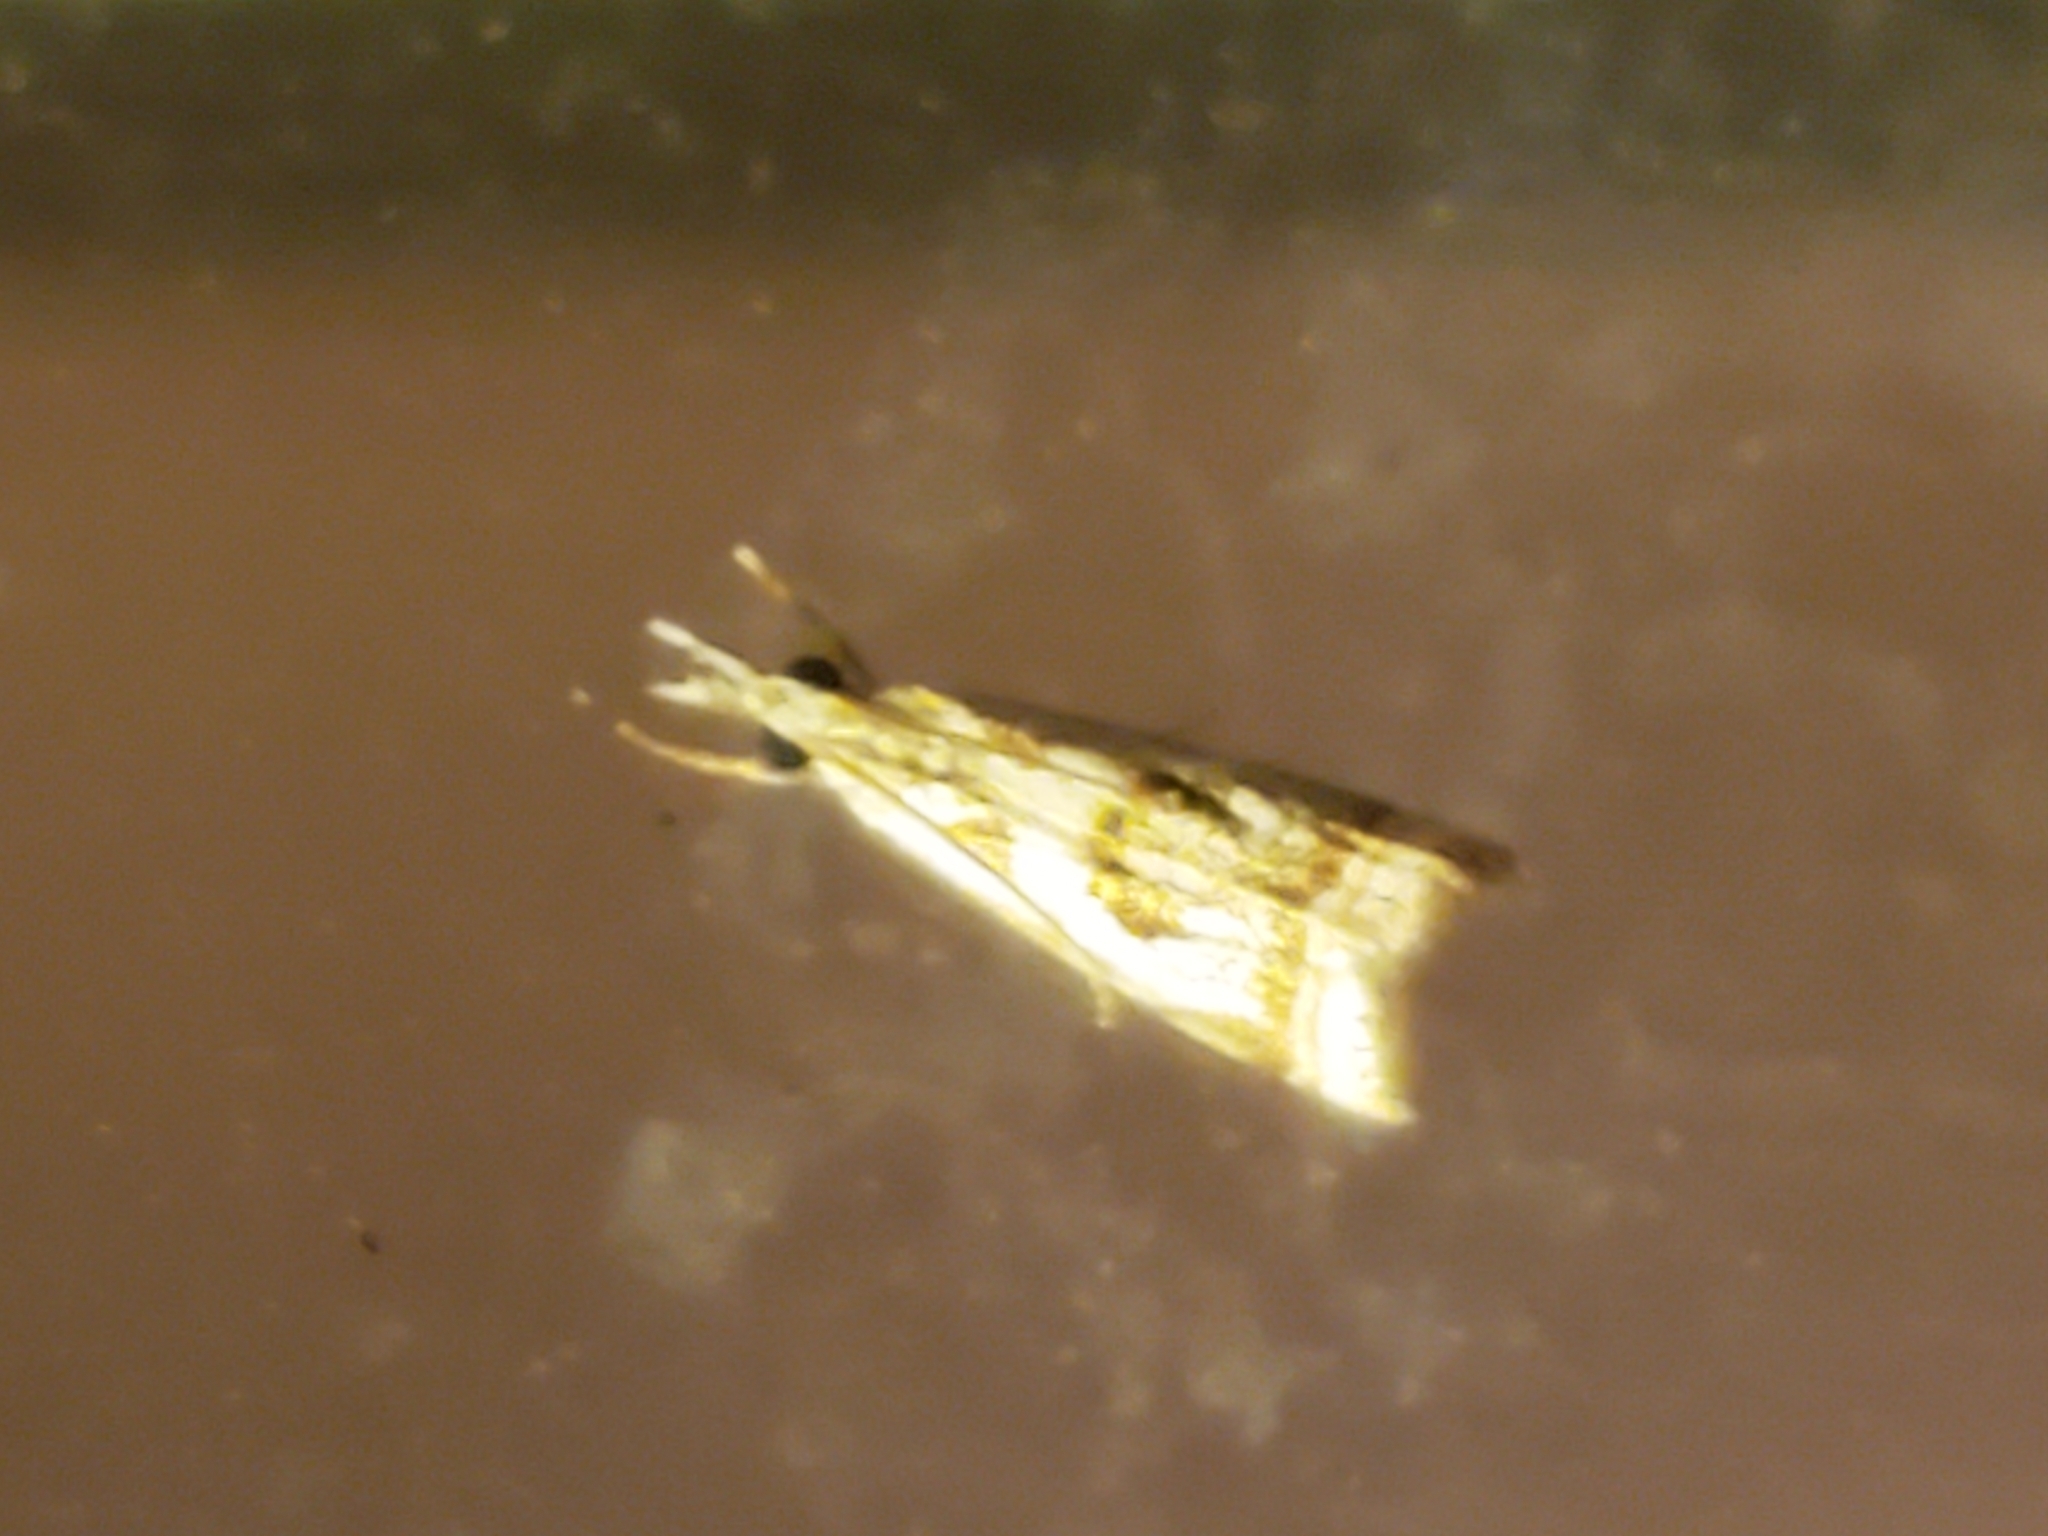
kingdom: Animalia
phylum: Arthropoda
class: Insecta
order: Lepidoptera
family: Crambidae
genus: Microcrambus
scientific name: Microcrambus elegans
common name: Elegant grass-veneer
